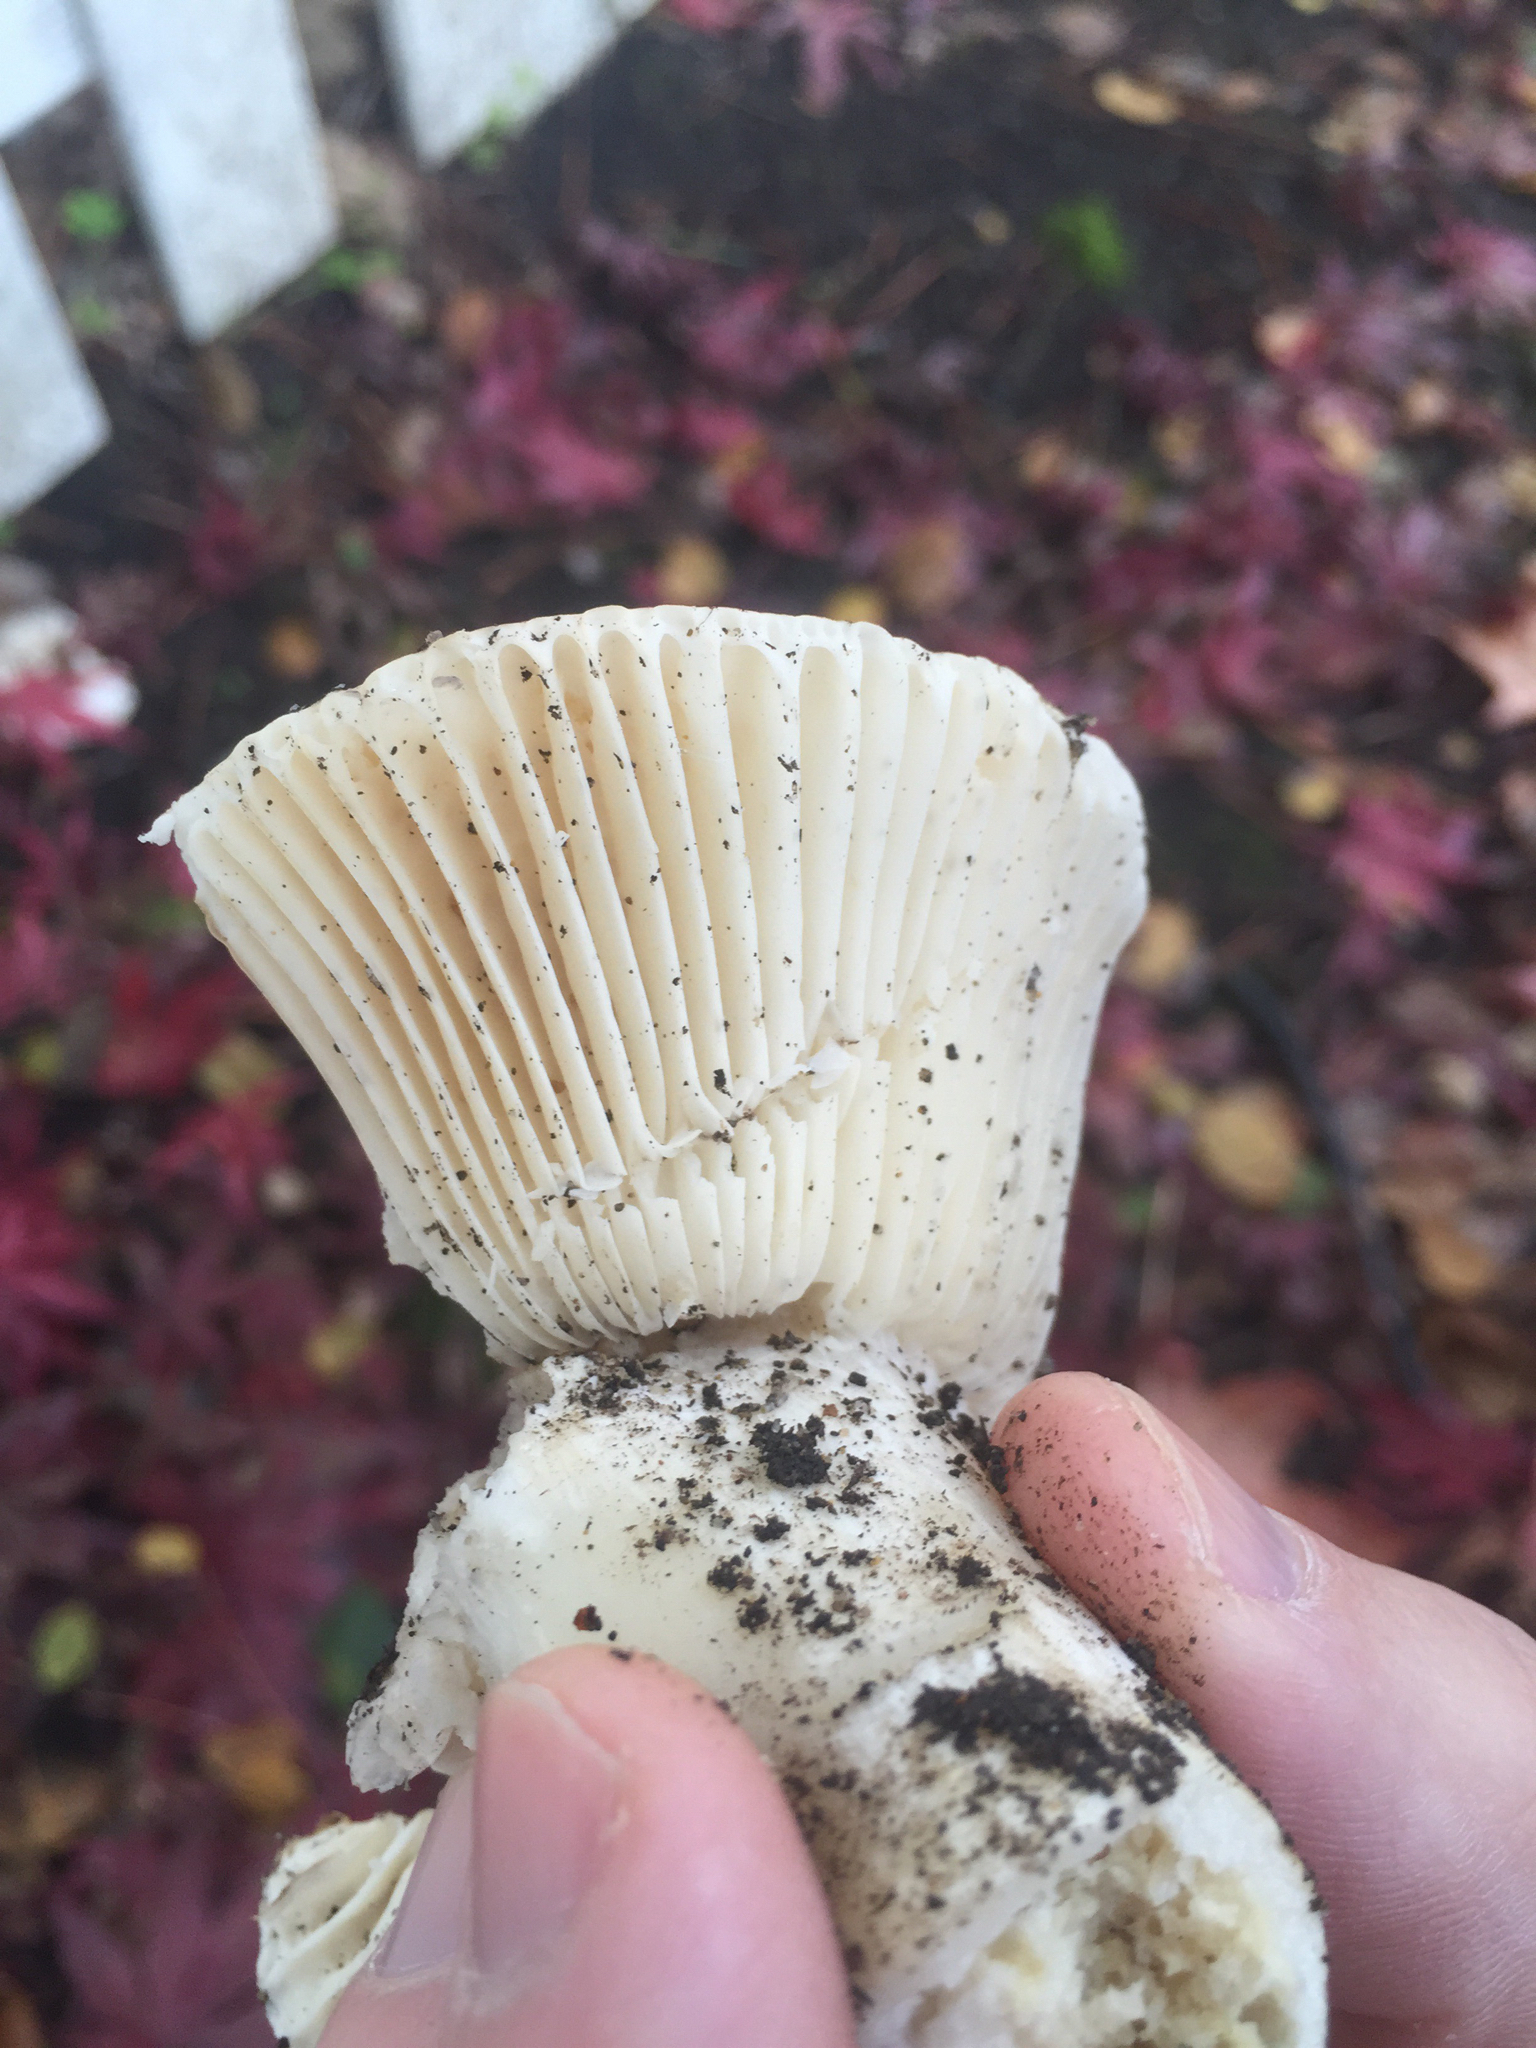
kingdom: Fungi
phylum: Basidiomycota
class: Agaricomycetes
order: Russulales
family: Russulaceae
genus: Russula
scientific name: Russula brevipes
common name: Short-stemmed russula
